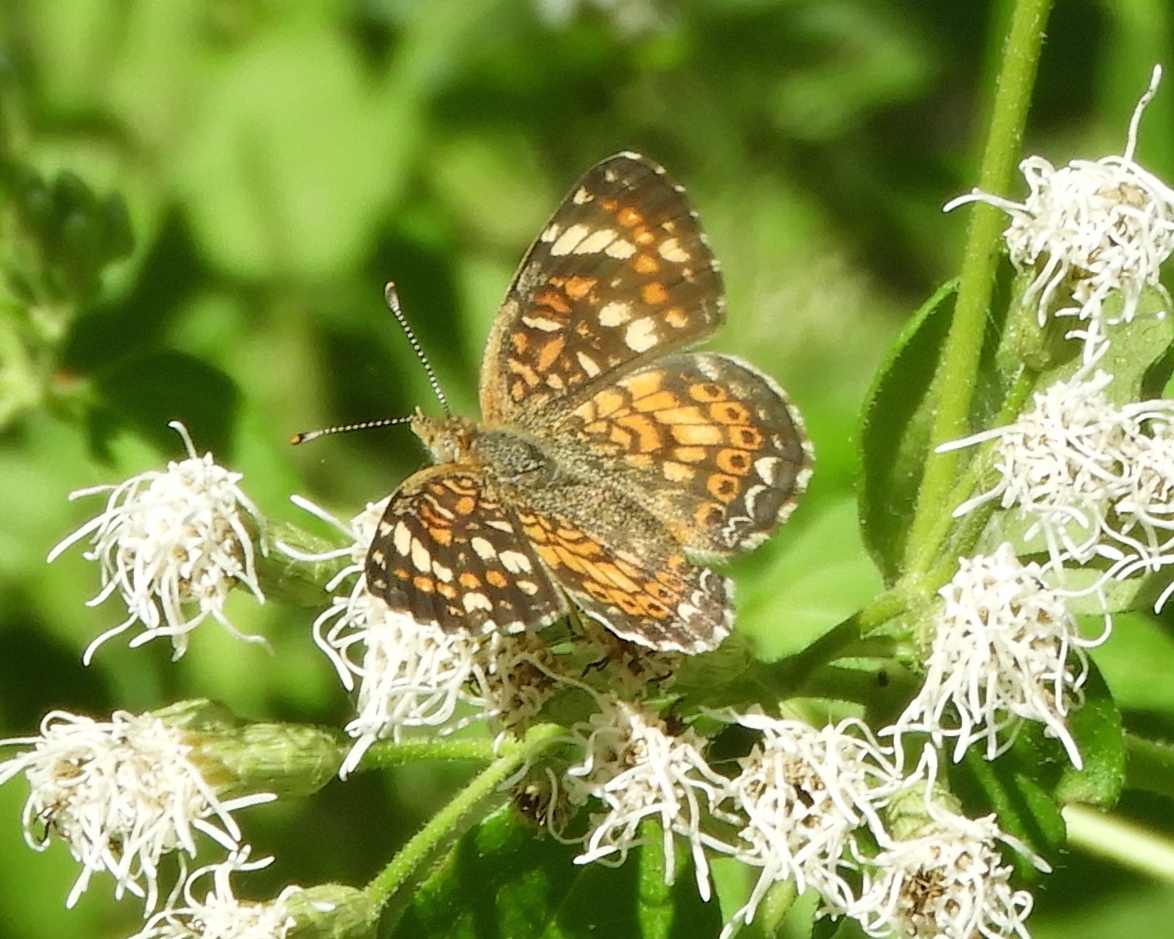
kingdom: Animalia
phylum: Arthropoda
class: Insecta
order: Lepidoptera
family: Nymphalidae
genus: Phyciodes
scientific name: Phyciodes picta
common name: Painted crescent
